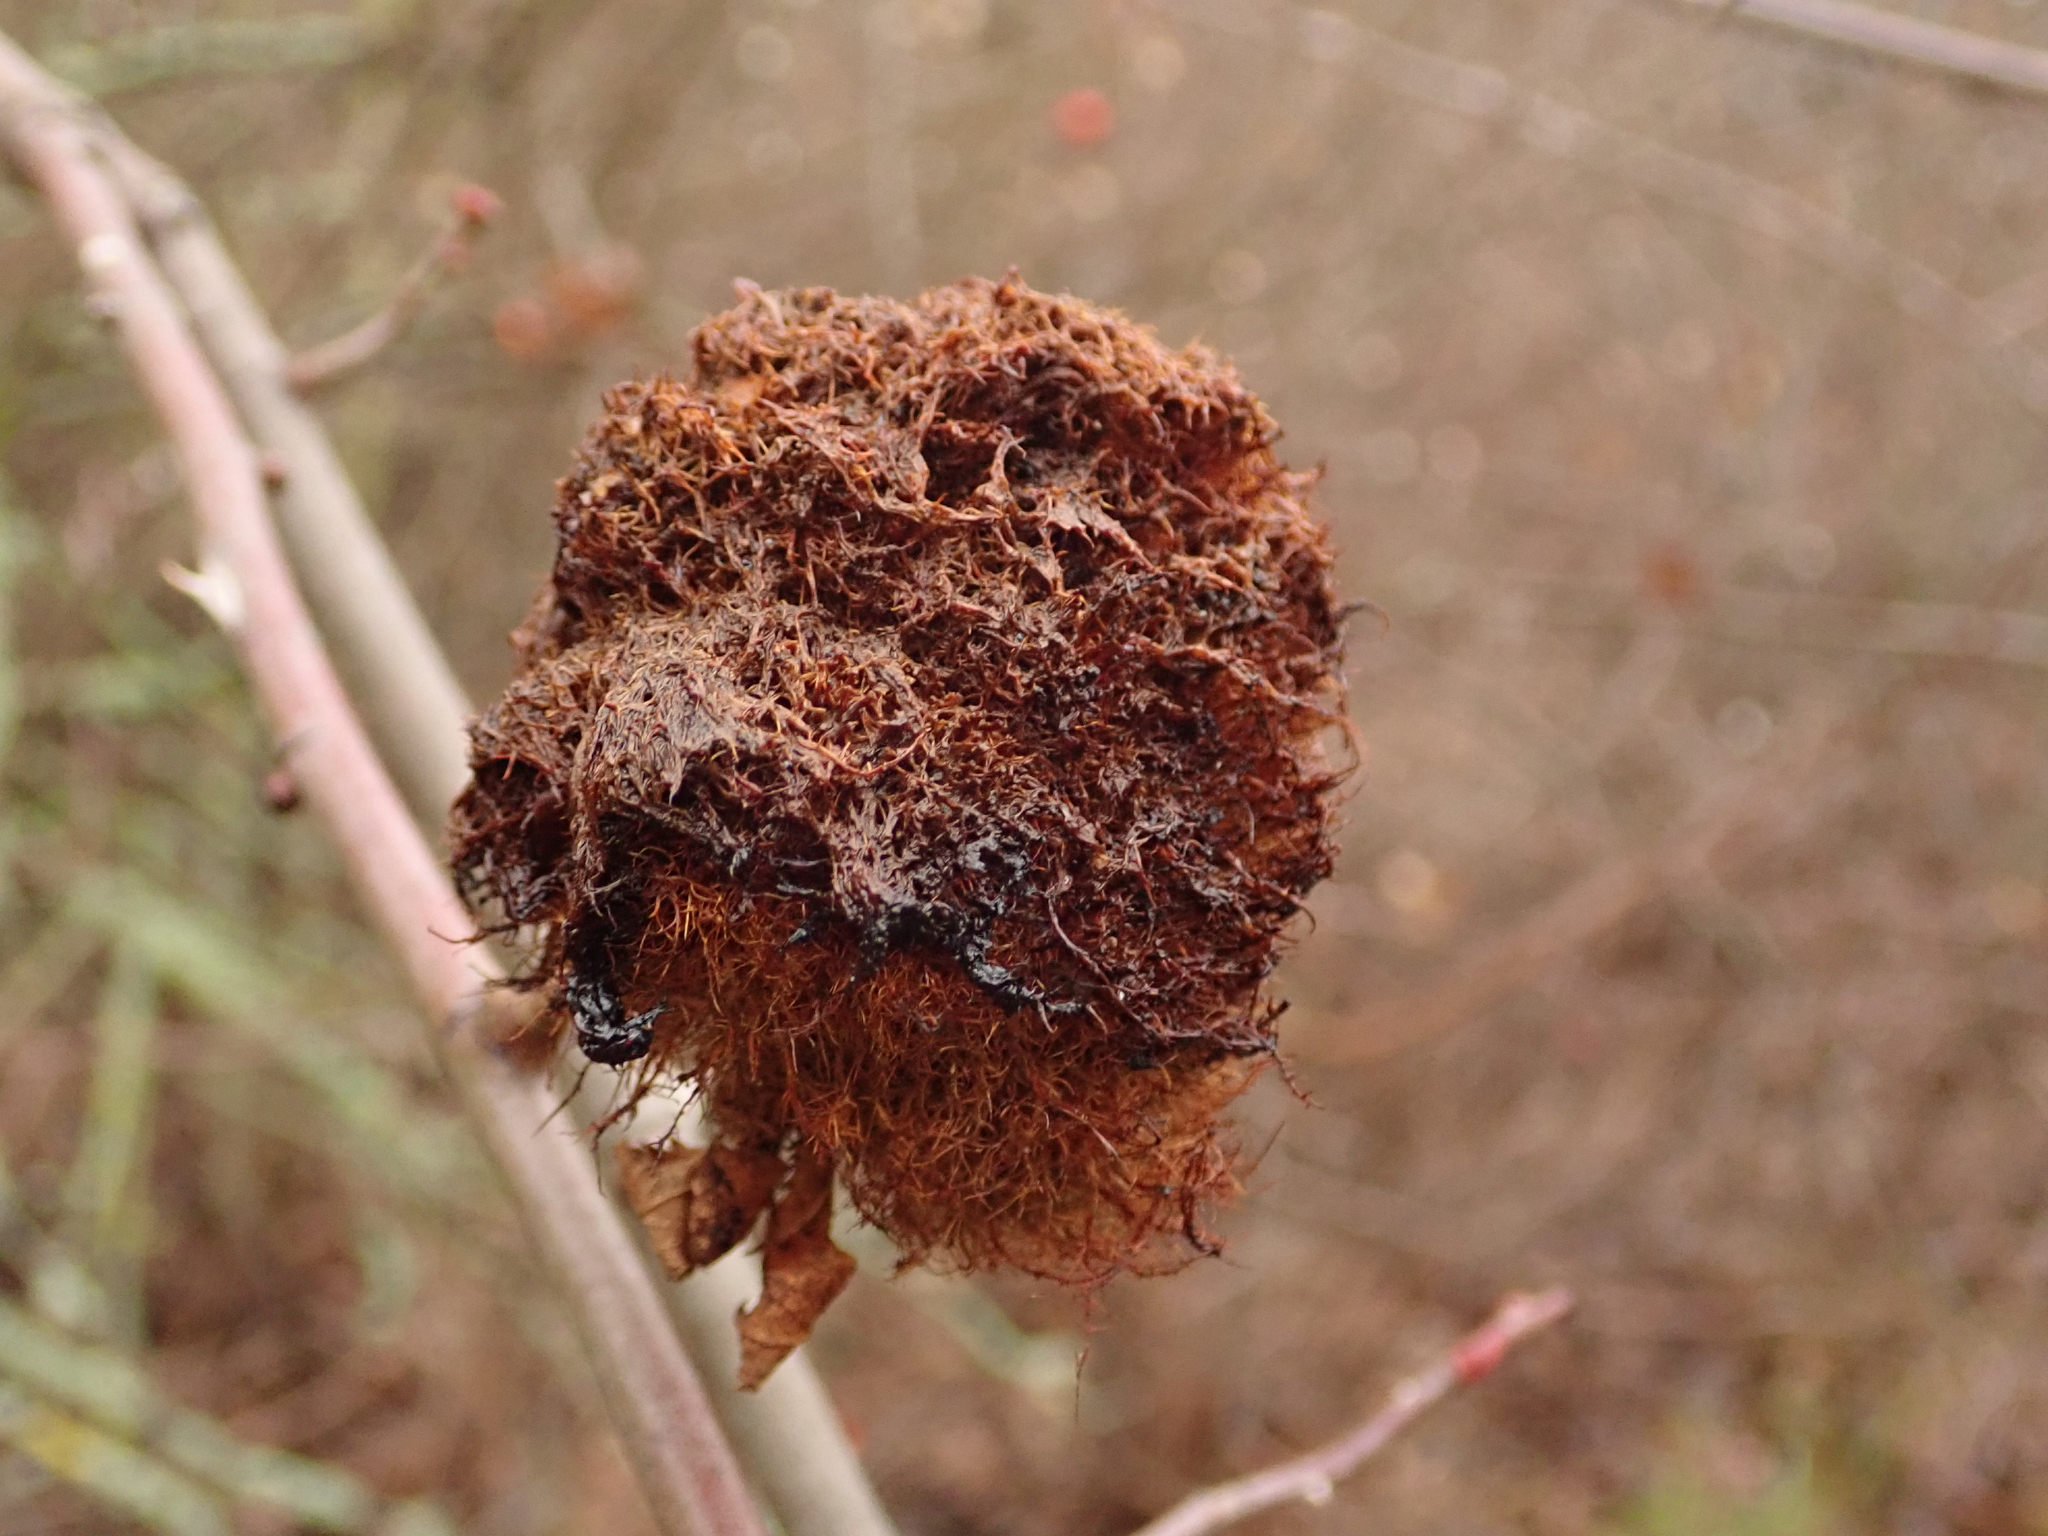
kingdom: Animalia
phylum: Arthropoda
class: Insecta
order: Hymenoptera
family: Cynipidae
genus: Diplolepis
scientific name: Diplolepis rosae
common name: Bedeguar gall
